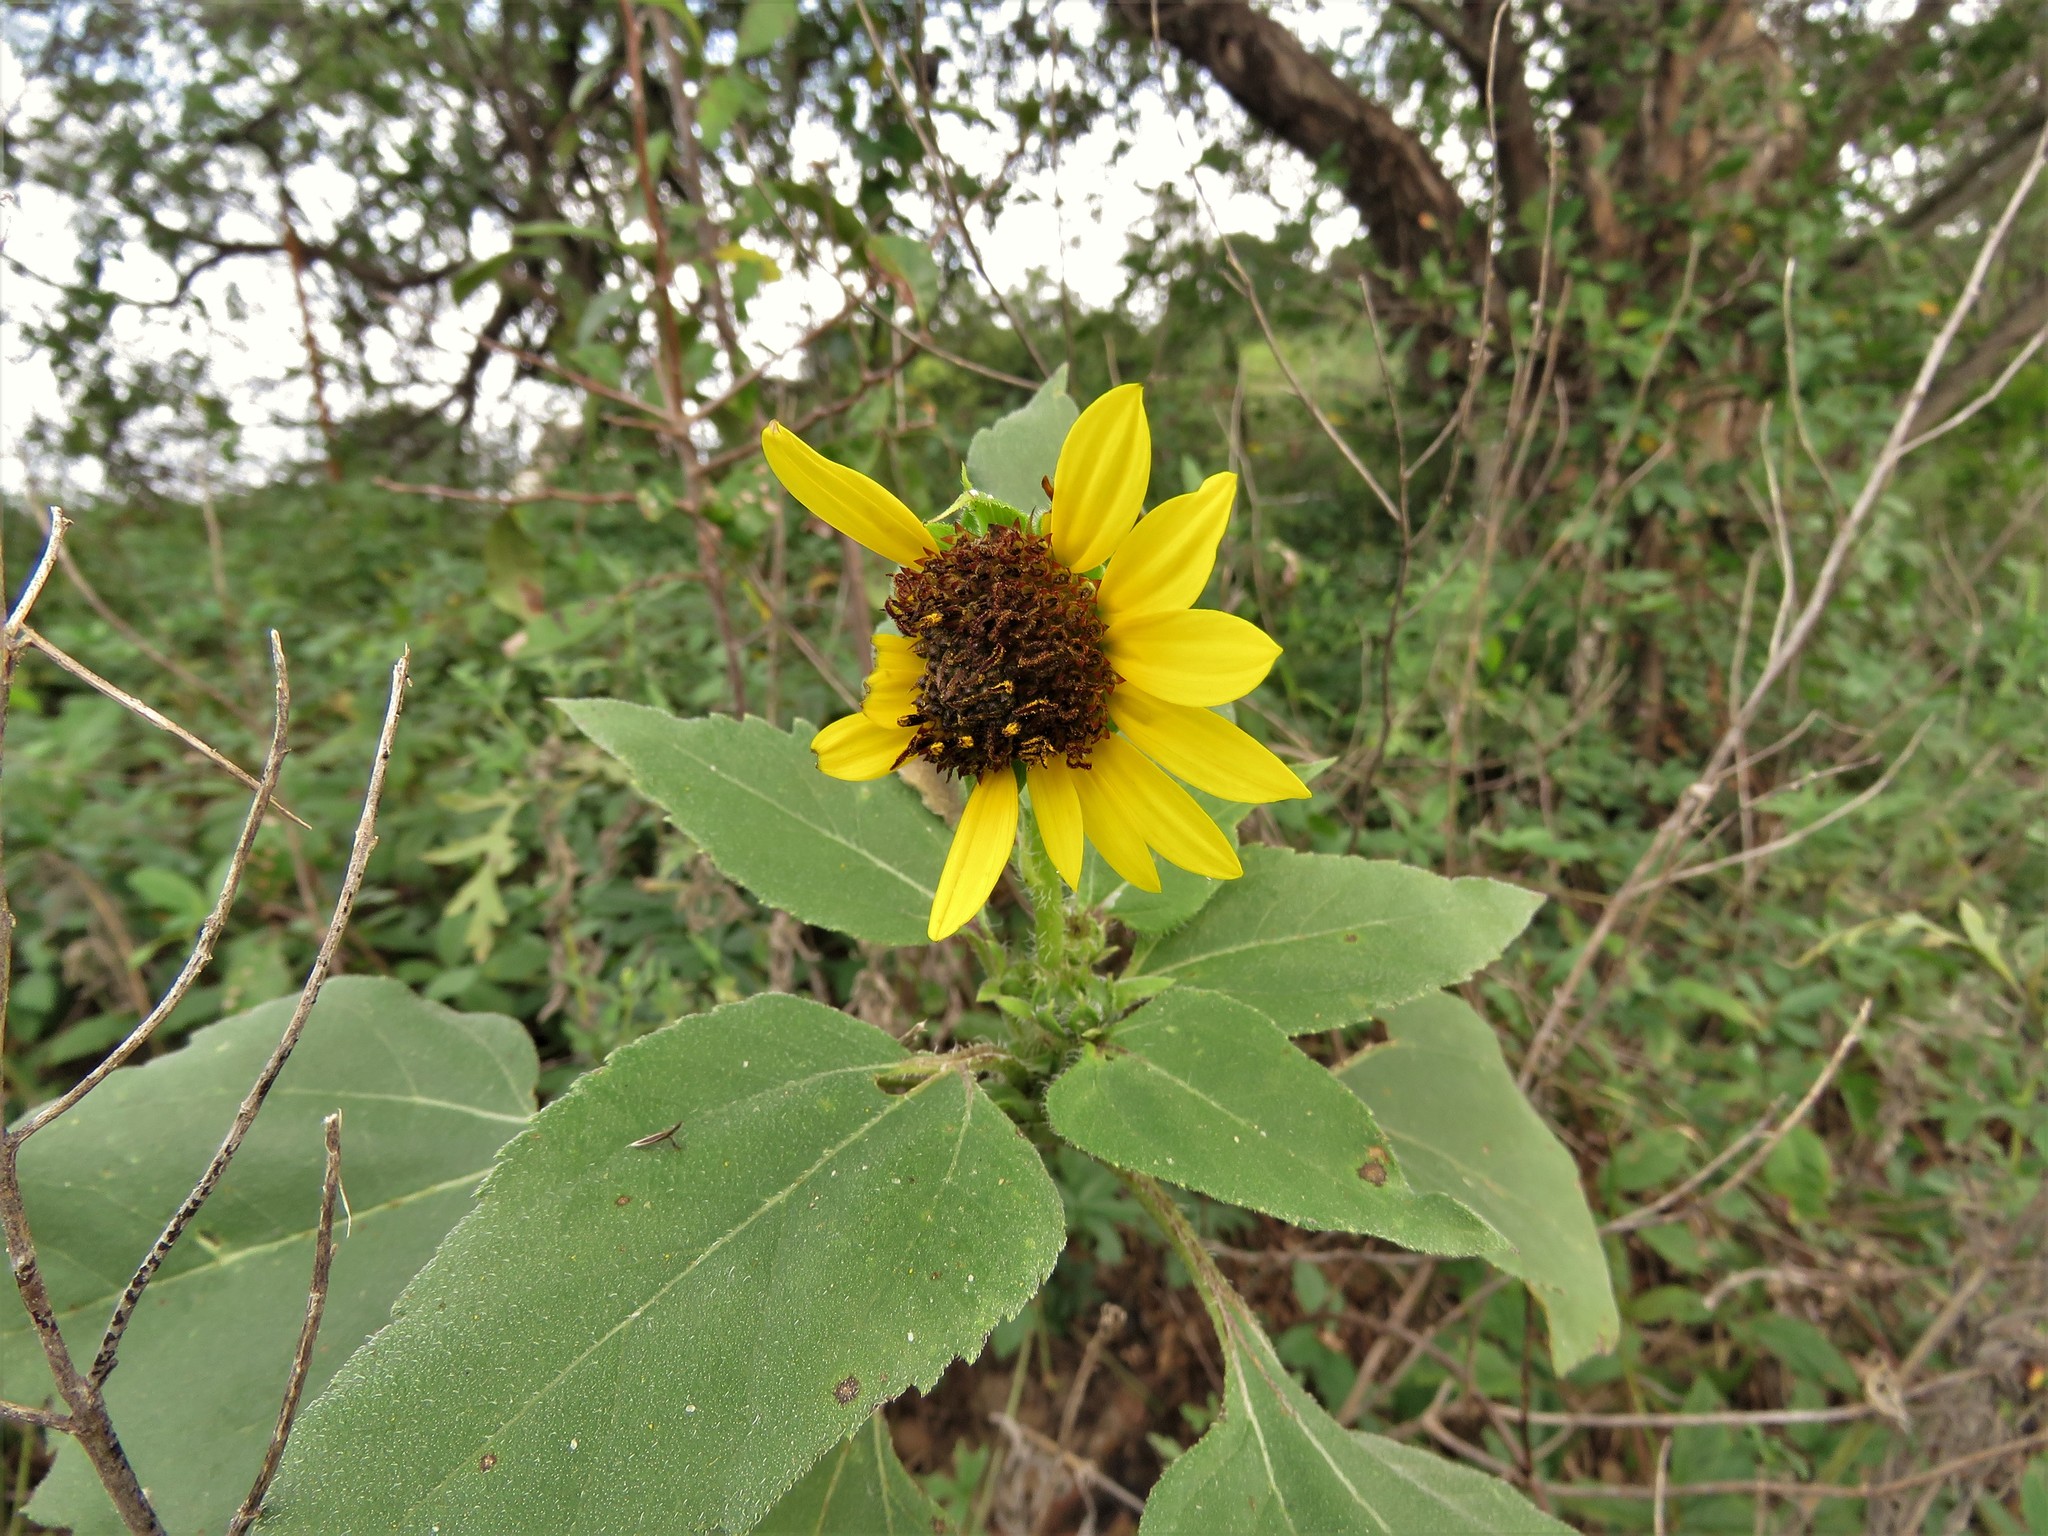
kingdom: Plantae
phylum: Tracheophyta
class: Magnoliopsida
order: Asterales
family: Asteraceae
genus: Helianthus
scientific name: Helianthus annuus
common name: Sunflower
